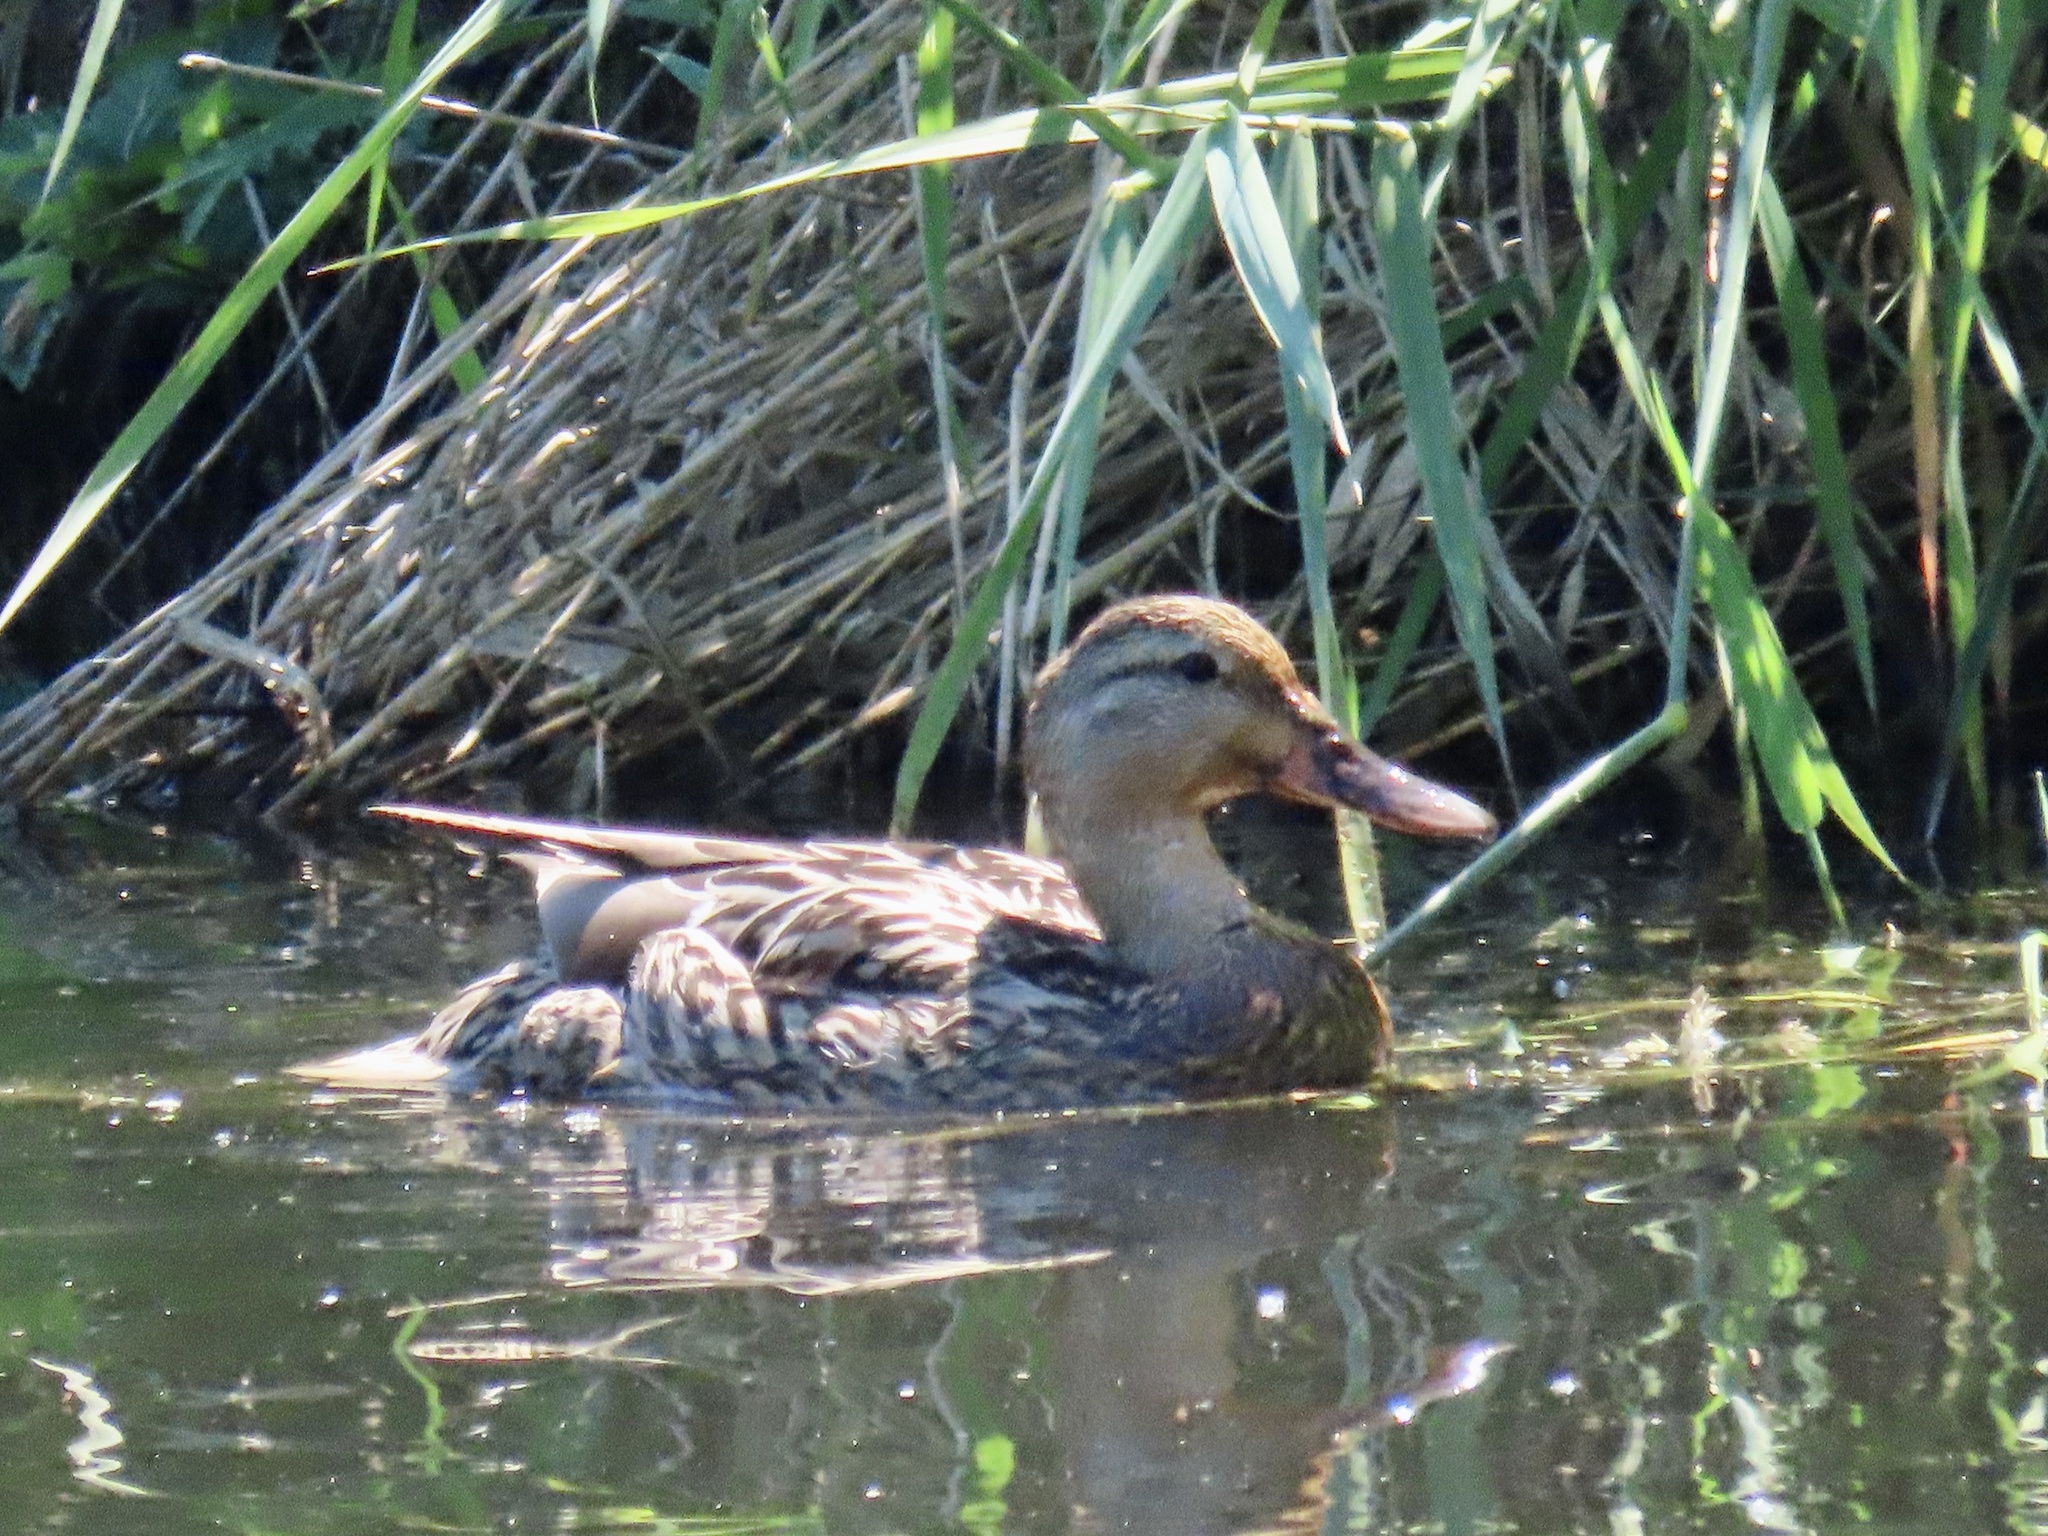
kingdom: Animalia
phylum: Chordata
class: Aves
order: Anseriformes
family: Anatidae
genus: Anas
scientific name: Anas platyrhynchos
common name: Mallard
